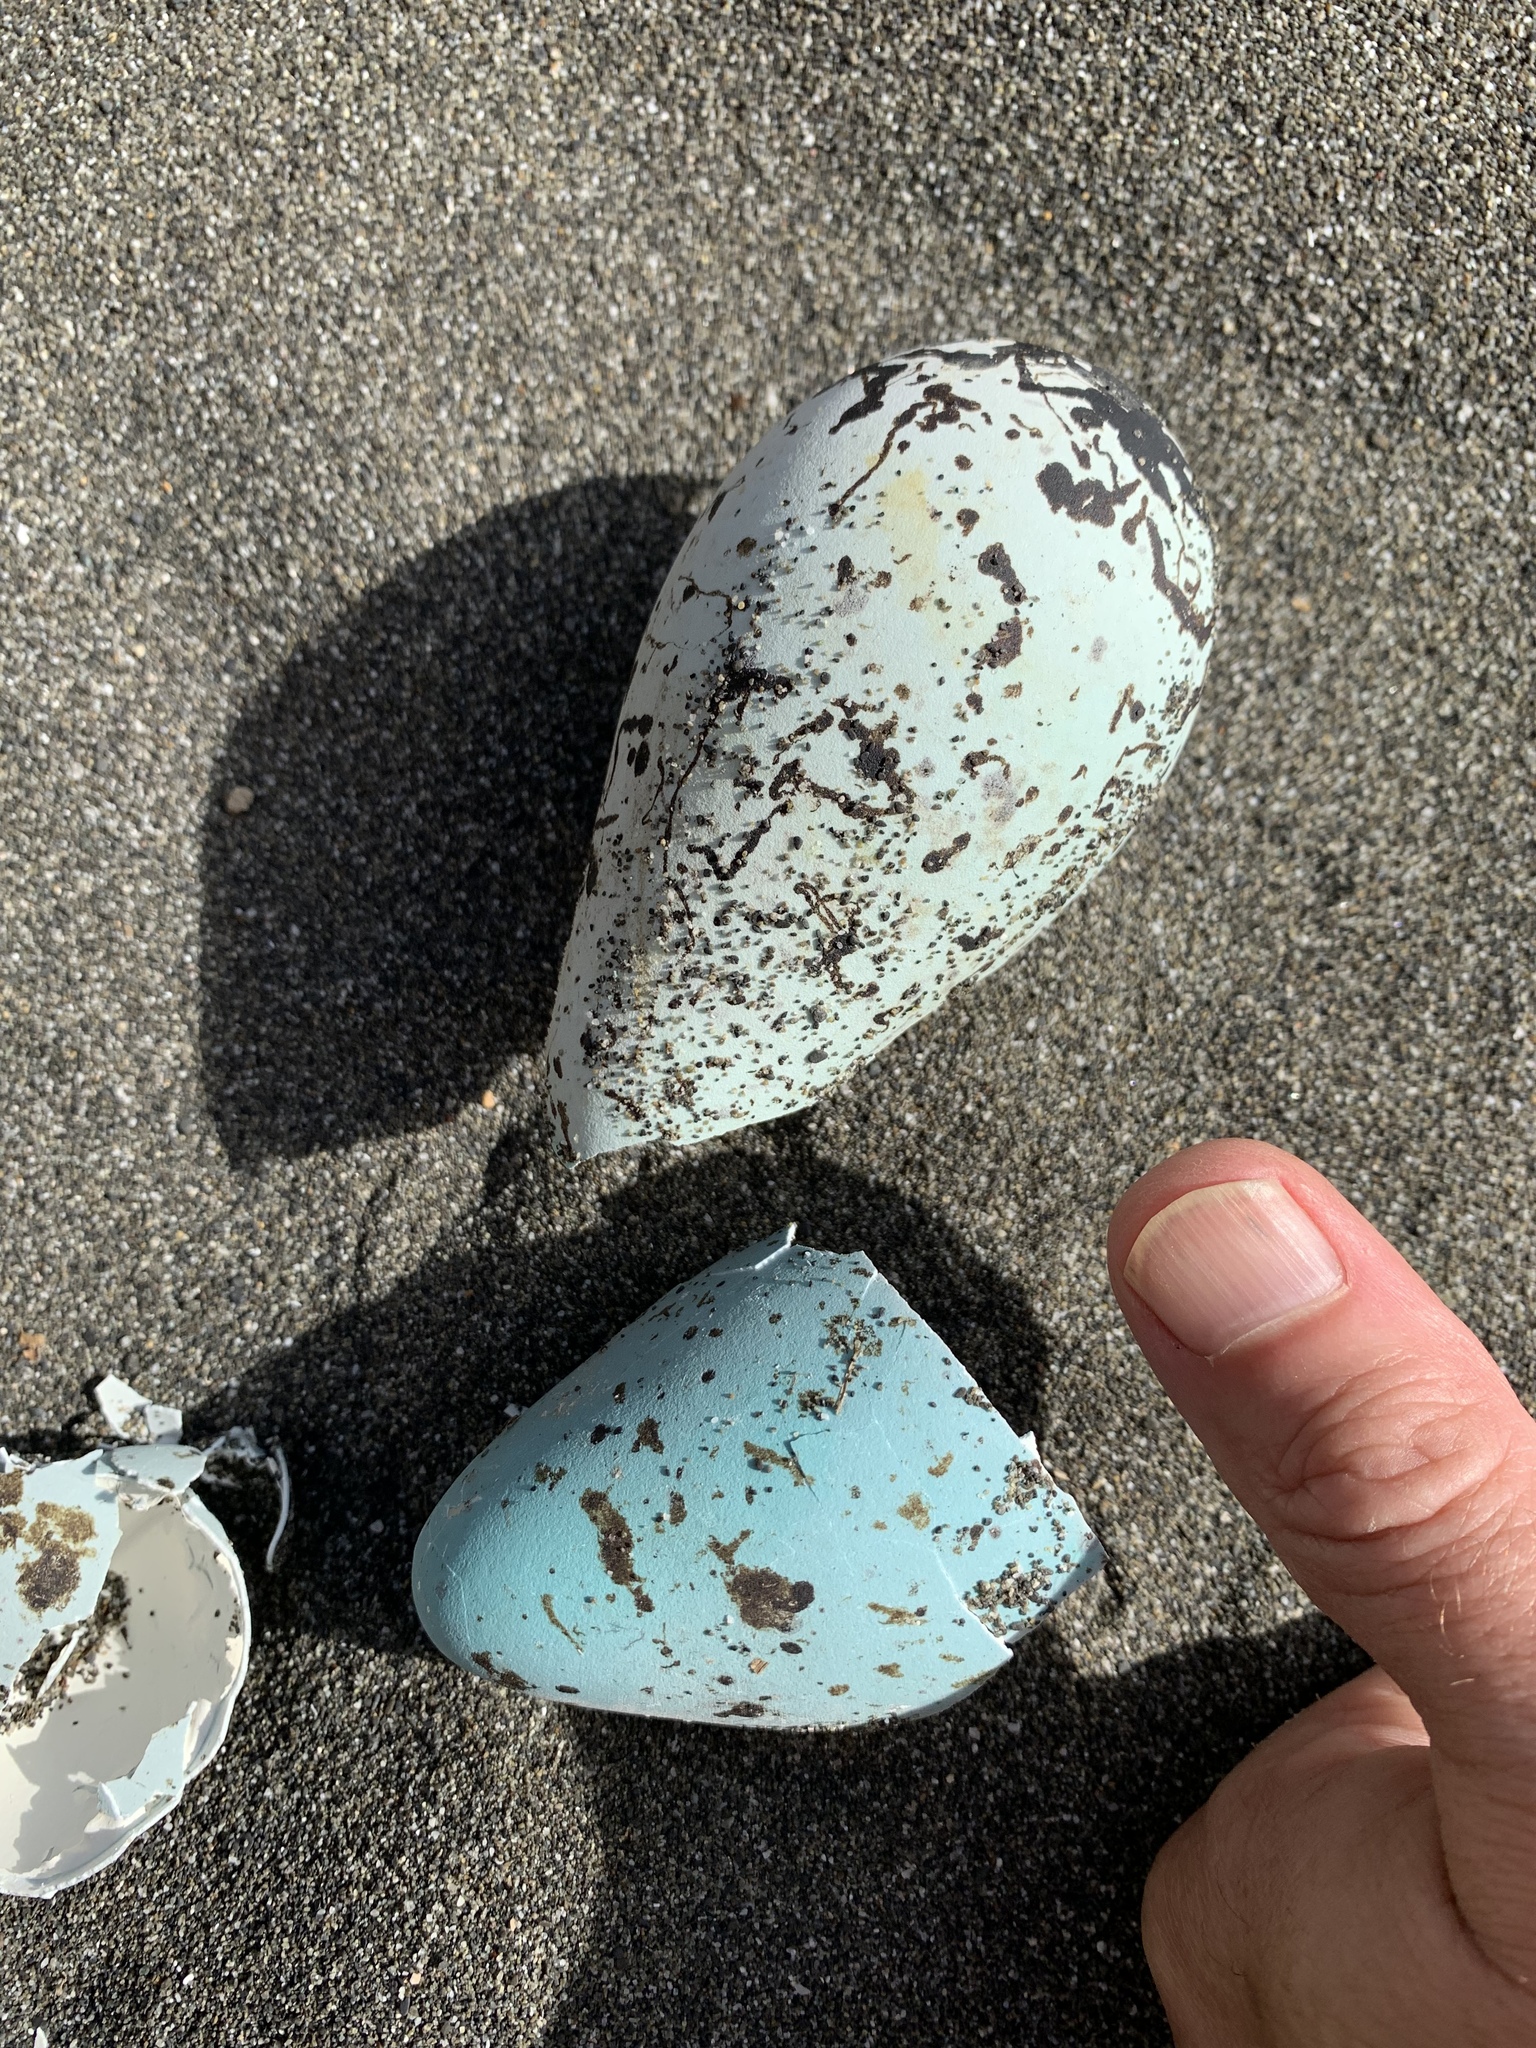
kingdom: Animalia
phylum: Chordata
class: Aves
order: Charadriiformes
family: Alcidae
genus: Uria
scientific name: Uria aalge
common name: Common murre
